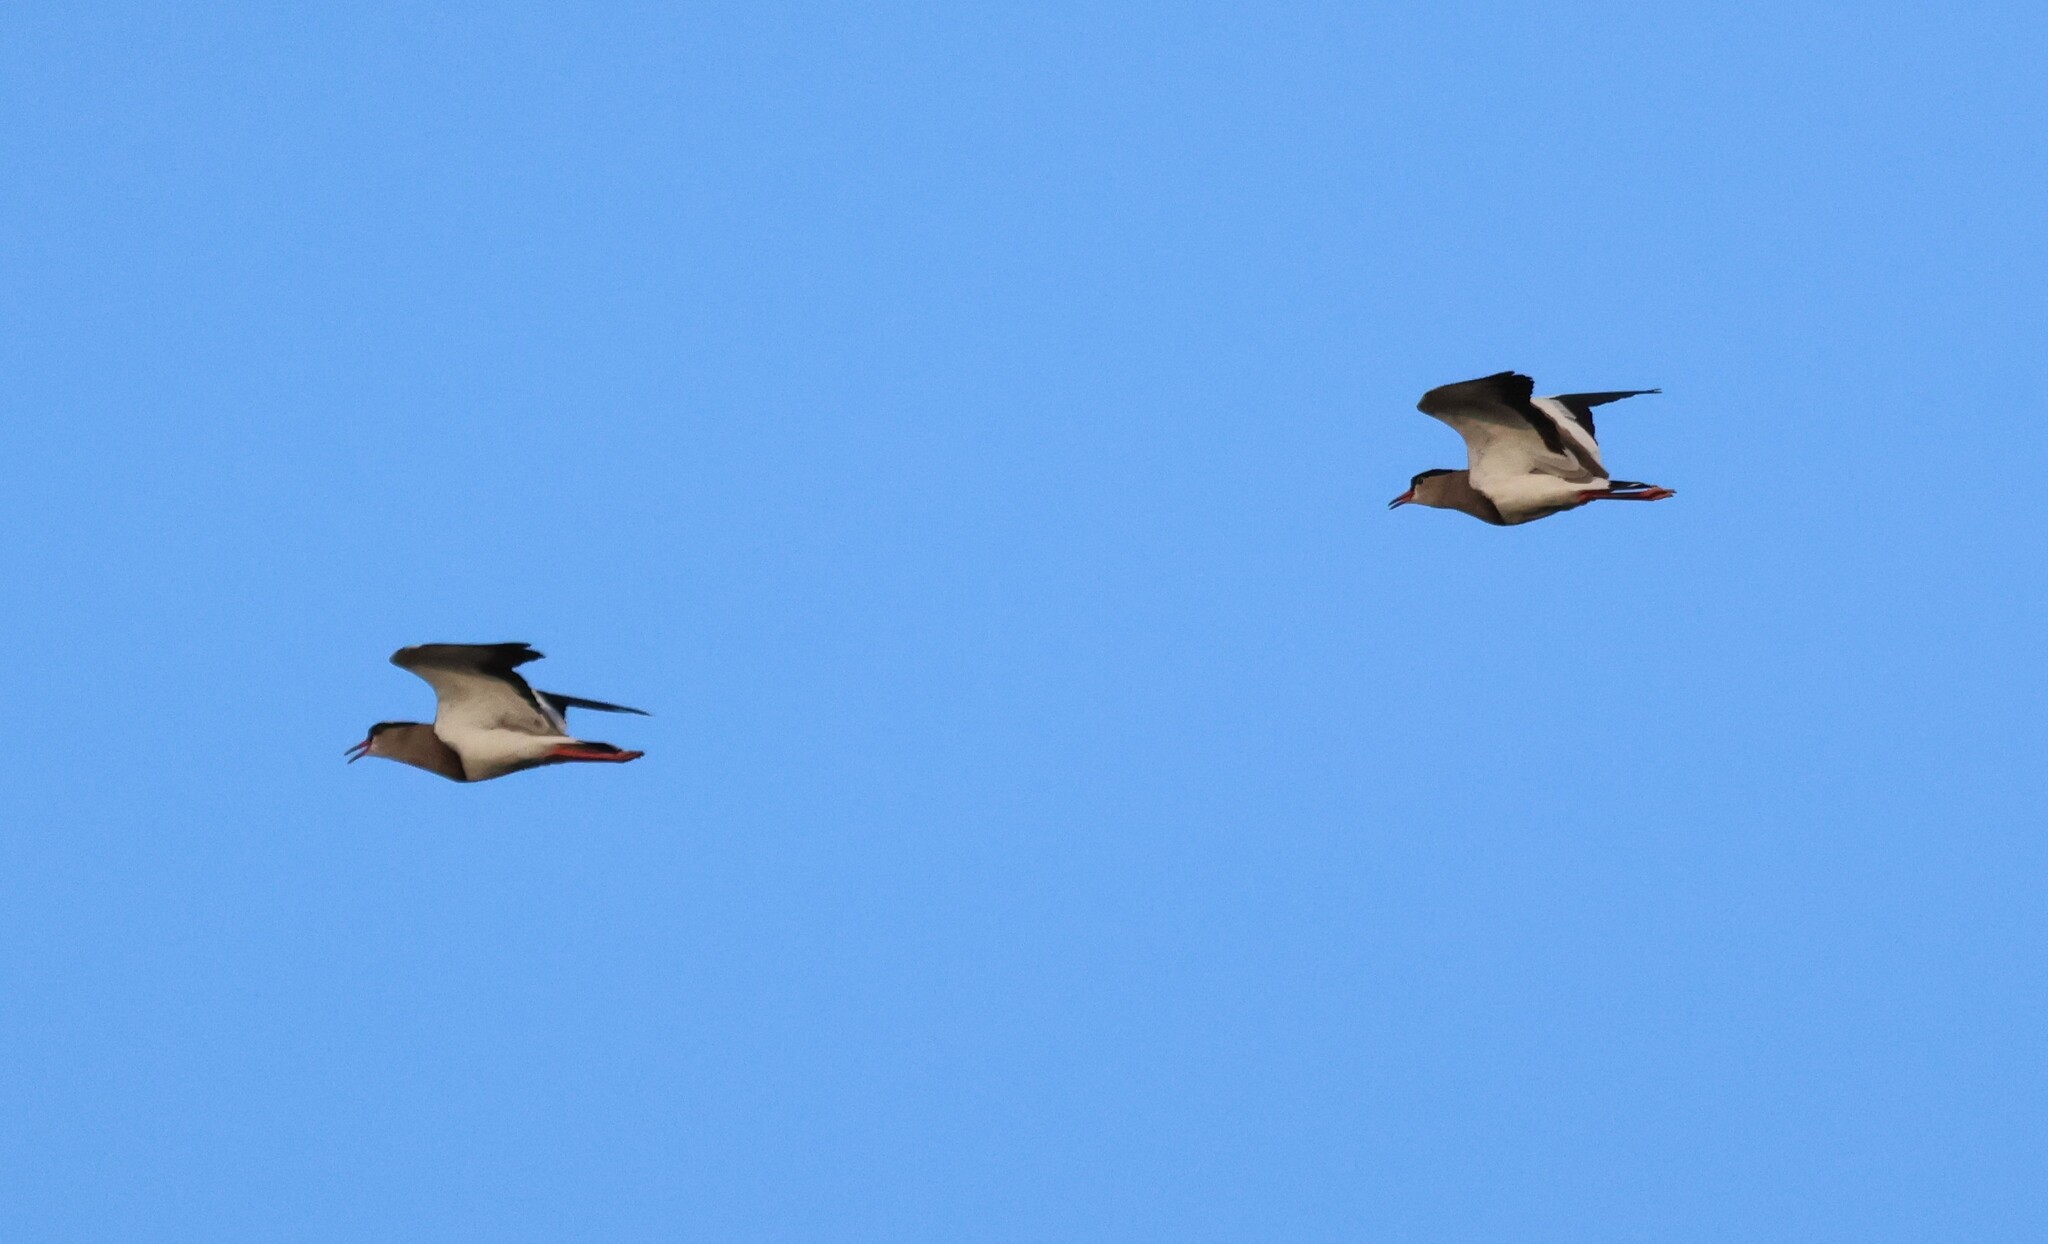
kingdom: Animalia
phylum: Chordata
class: Aves
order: Charadriiformes
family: Charadriidae
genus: Vanellus
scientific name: Vanellus coronatus
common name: Crowned lapwing
